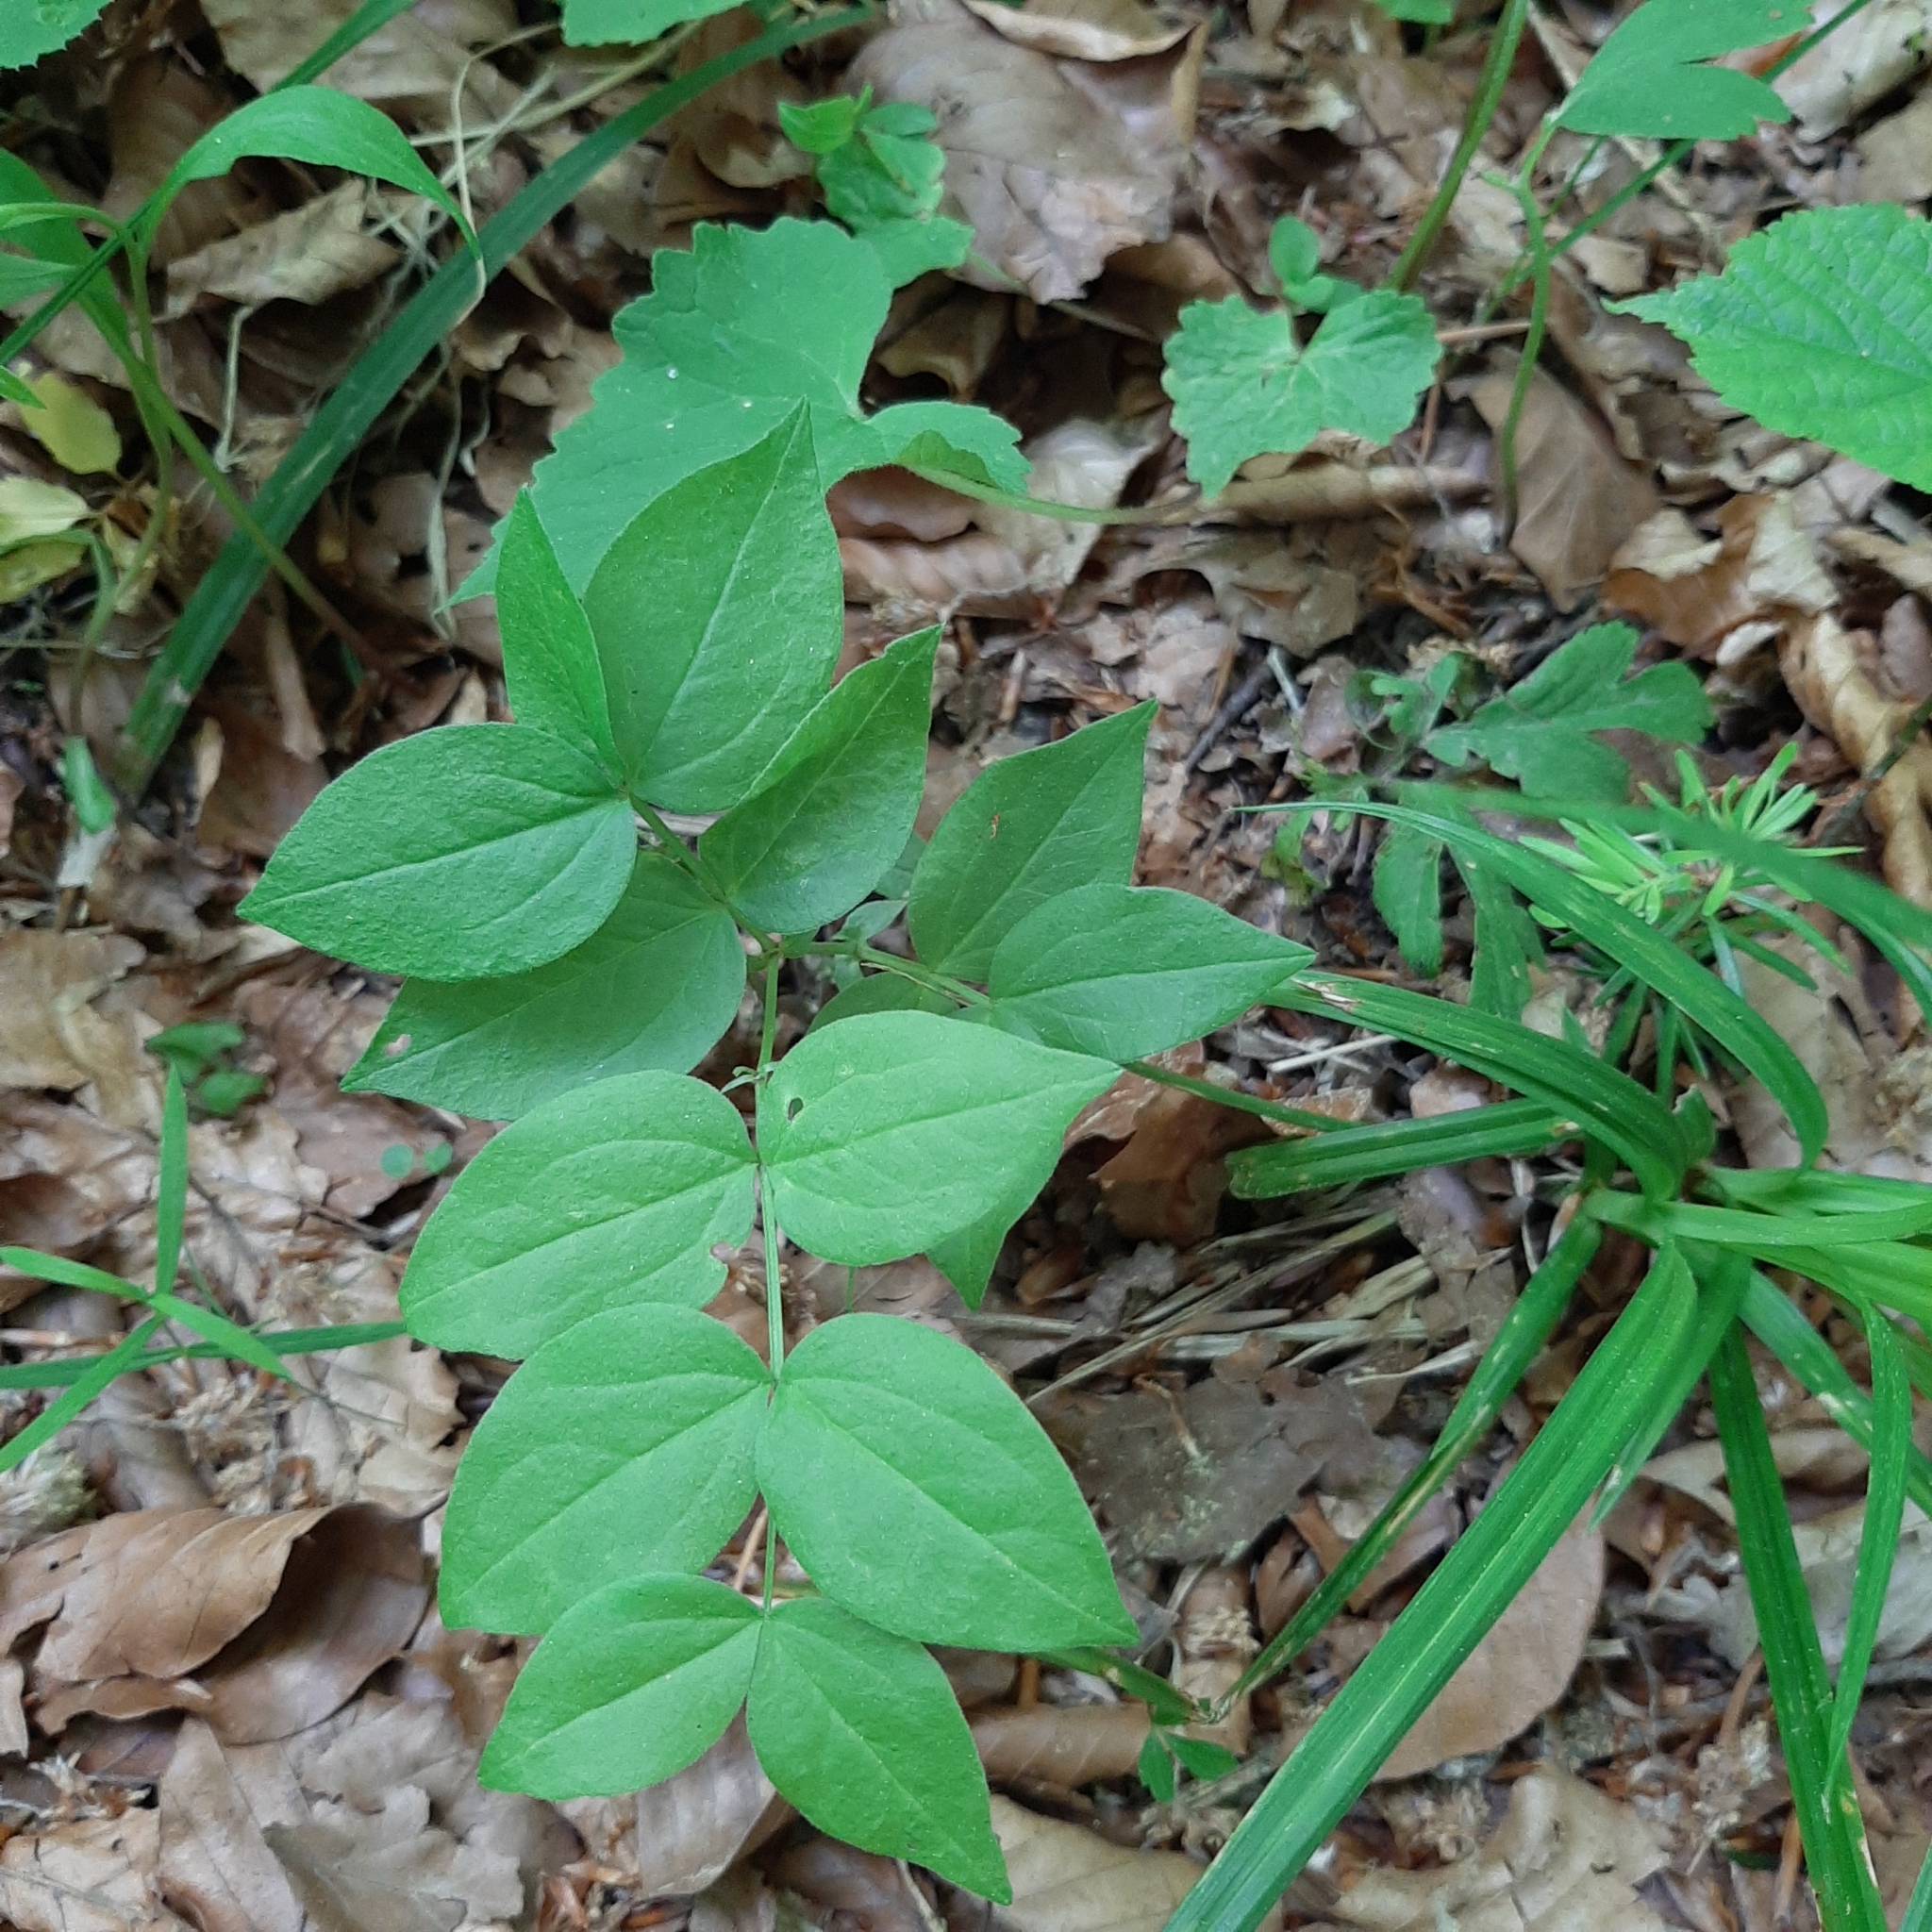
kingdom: Plantae
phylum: Tracheophyta
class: Magnoliopsida
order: Fabales
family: Fabaceae
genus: Lathyrus
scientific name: Lathyrus vernus
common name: Spring pea
